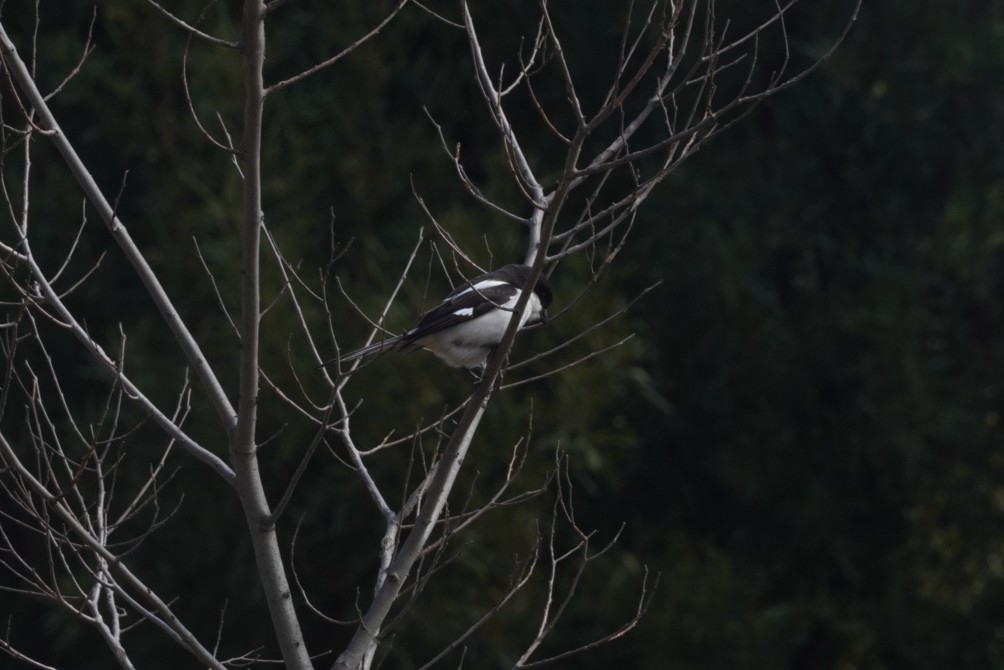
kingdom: Animalia
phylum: Chordata
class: Aves
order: Passeriformes
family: Laniidae
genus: Lanius
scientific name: Lanius collaris
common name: Southern fiscal
